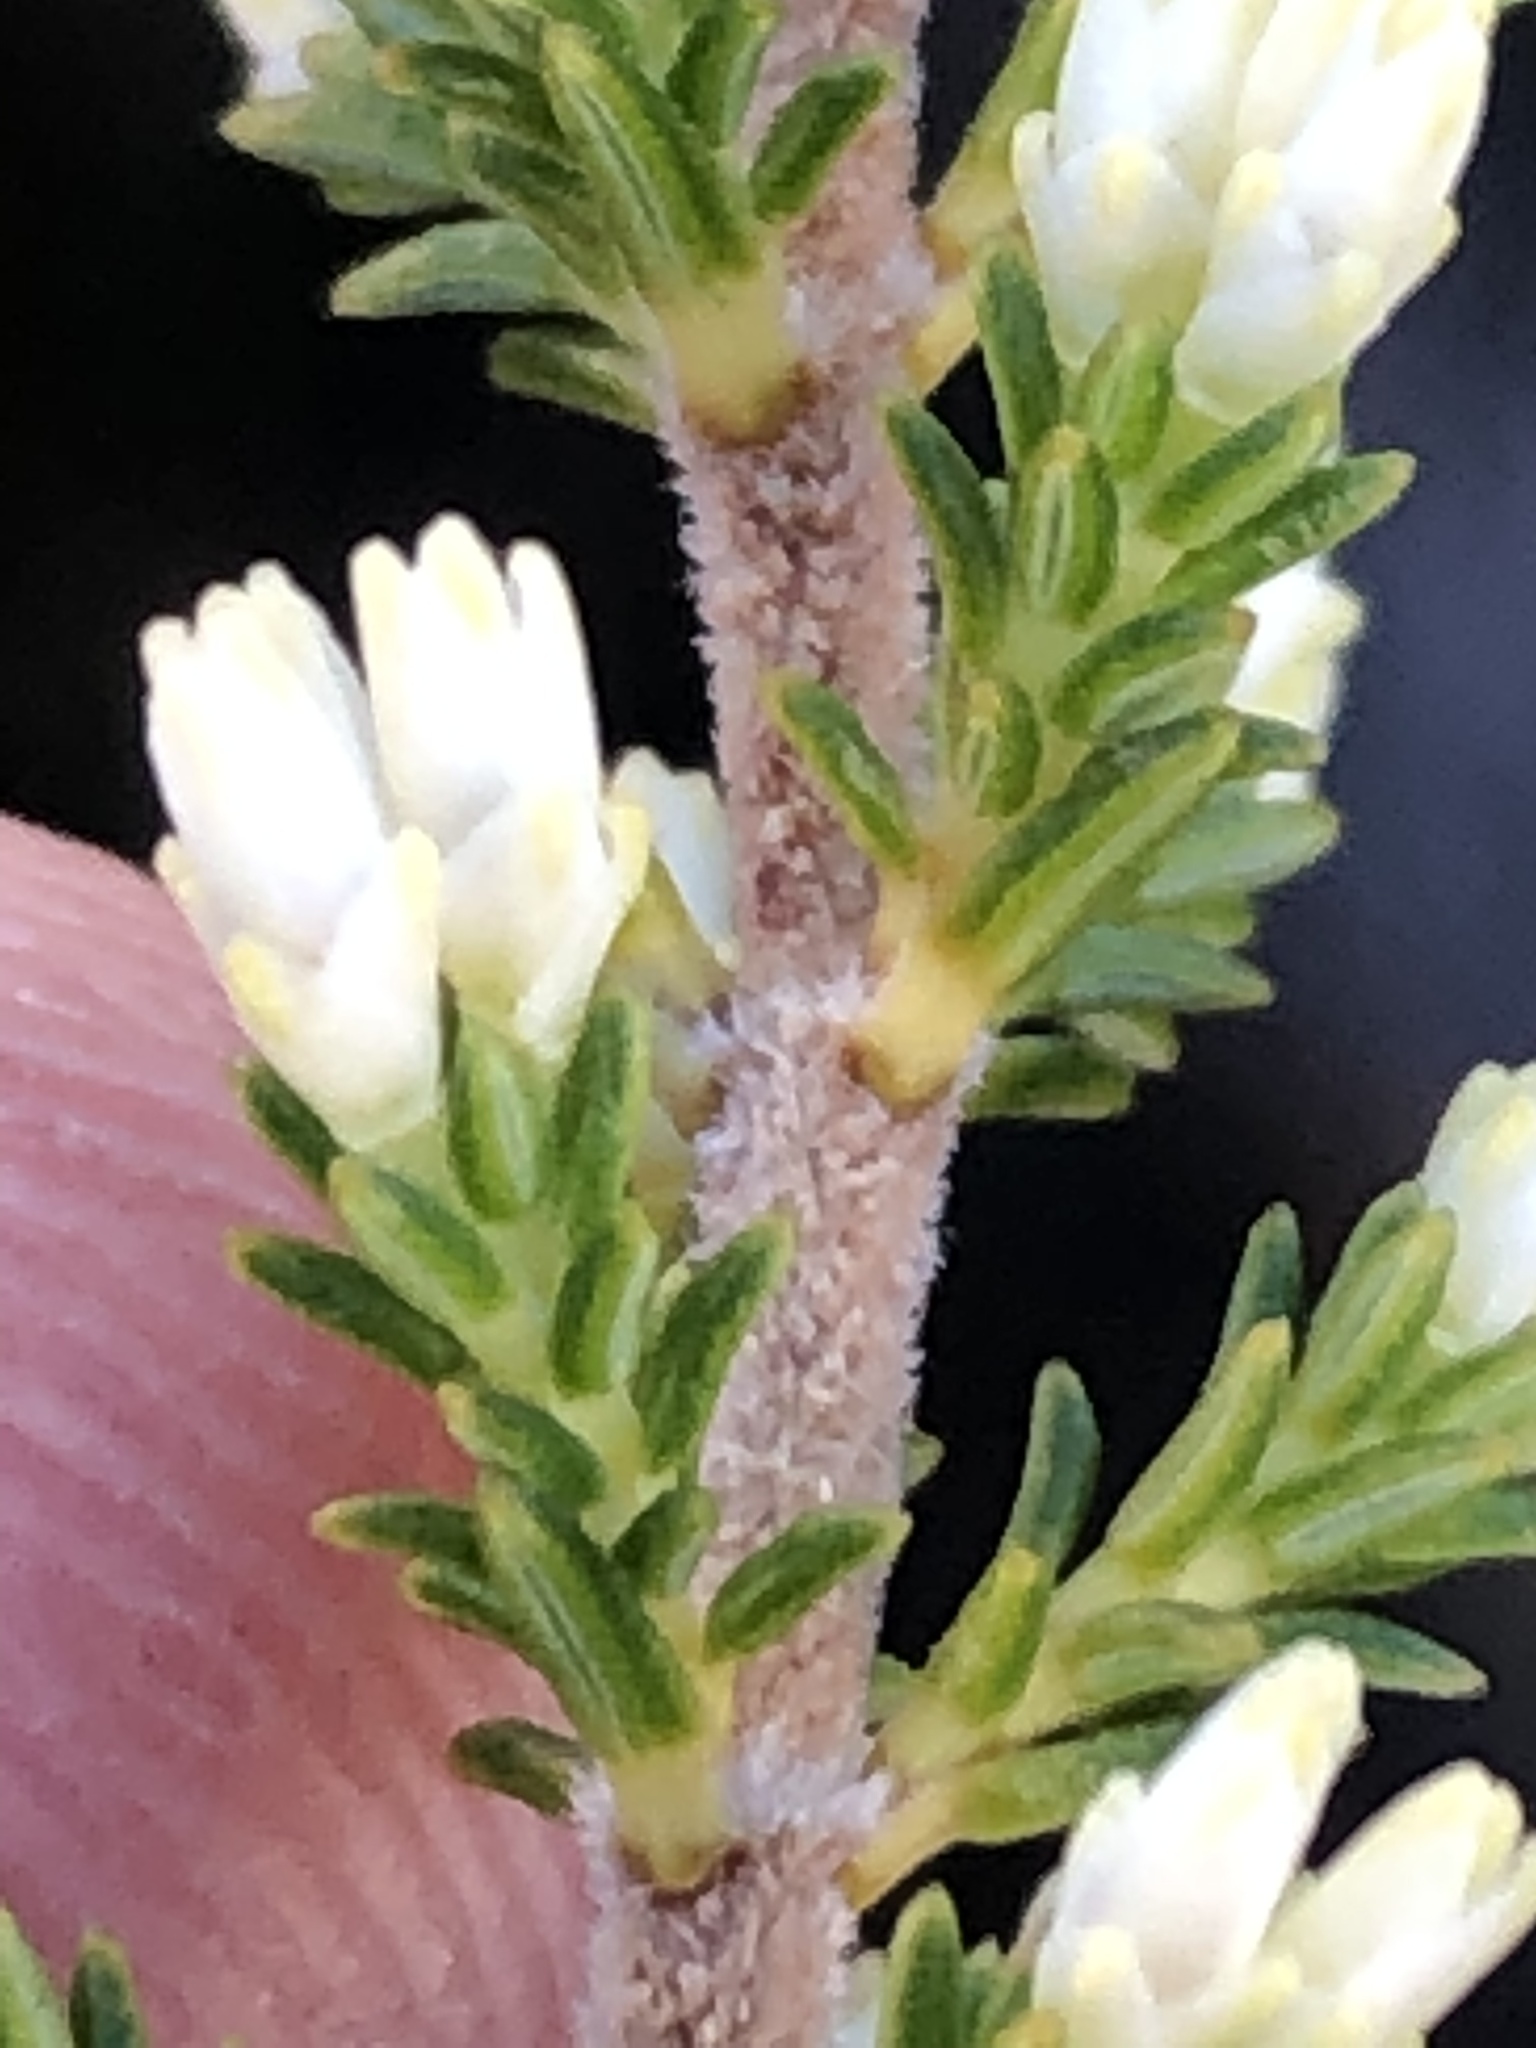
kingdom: Plantae
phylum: Tracheophyta
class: Magnoliopsida
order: Ericales
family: Ericaceae
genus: Erica
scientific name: Erica imbricata
